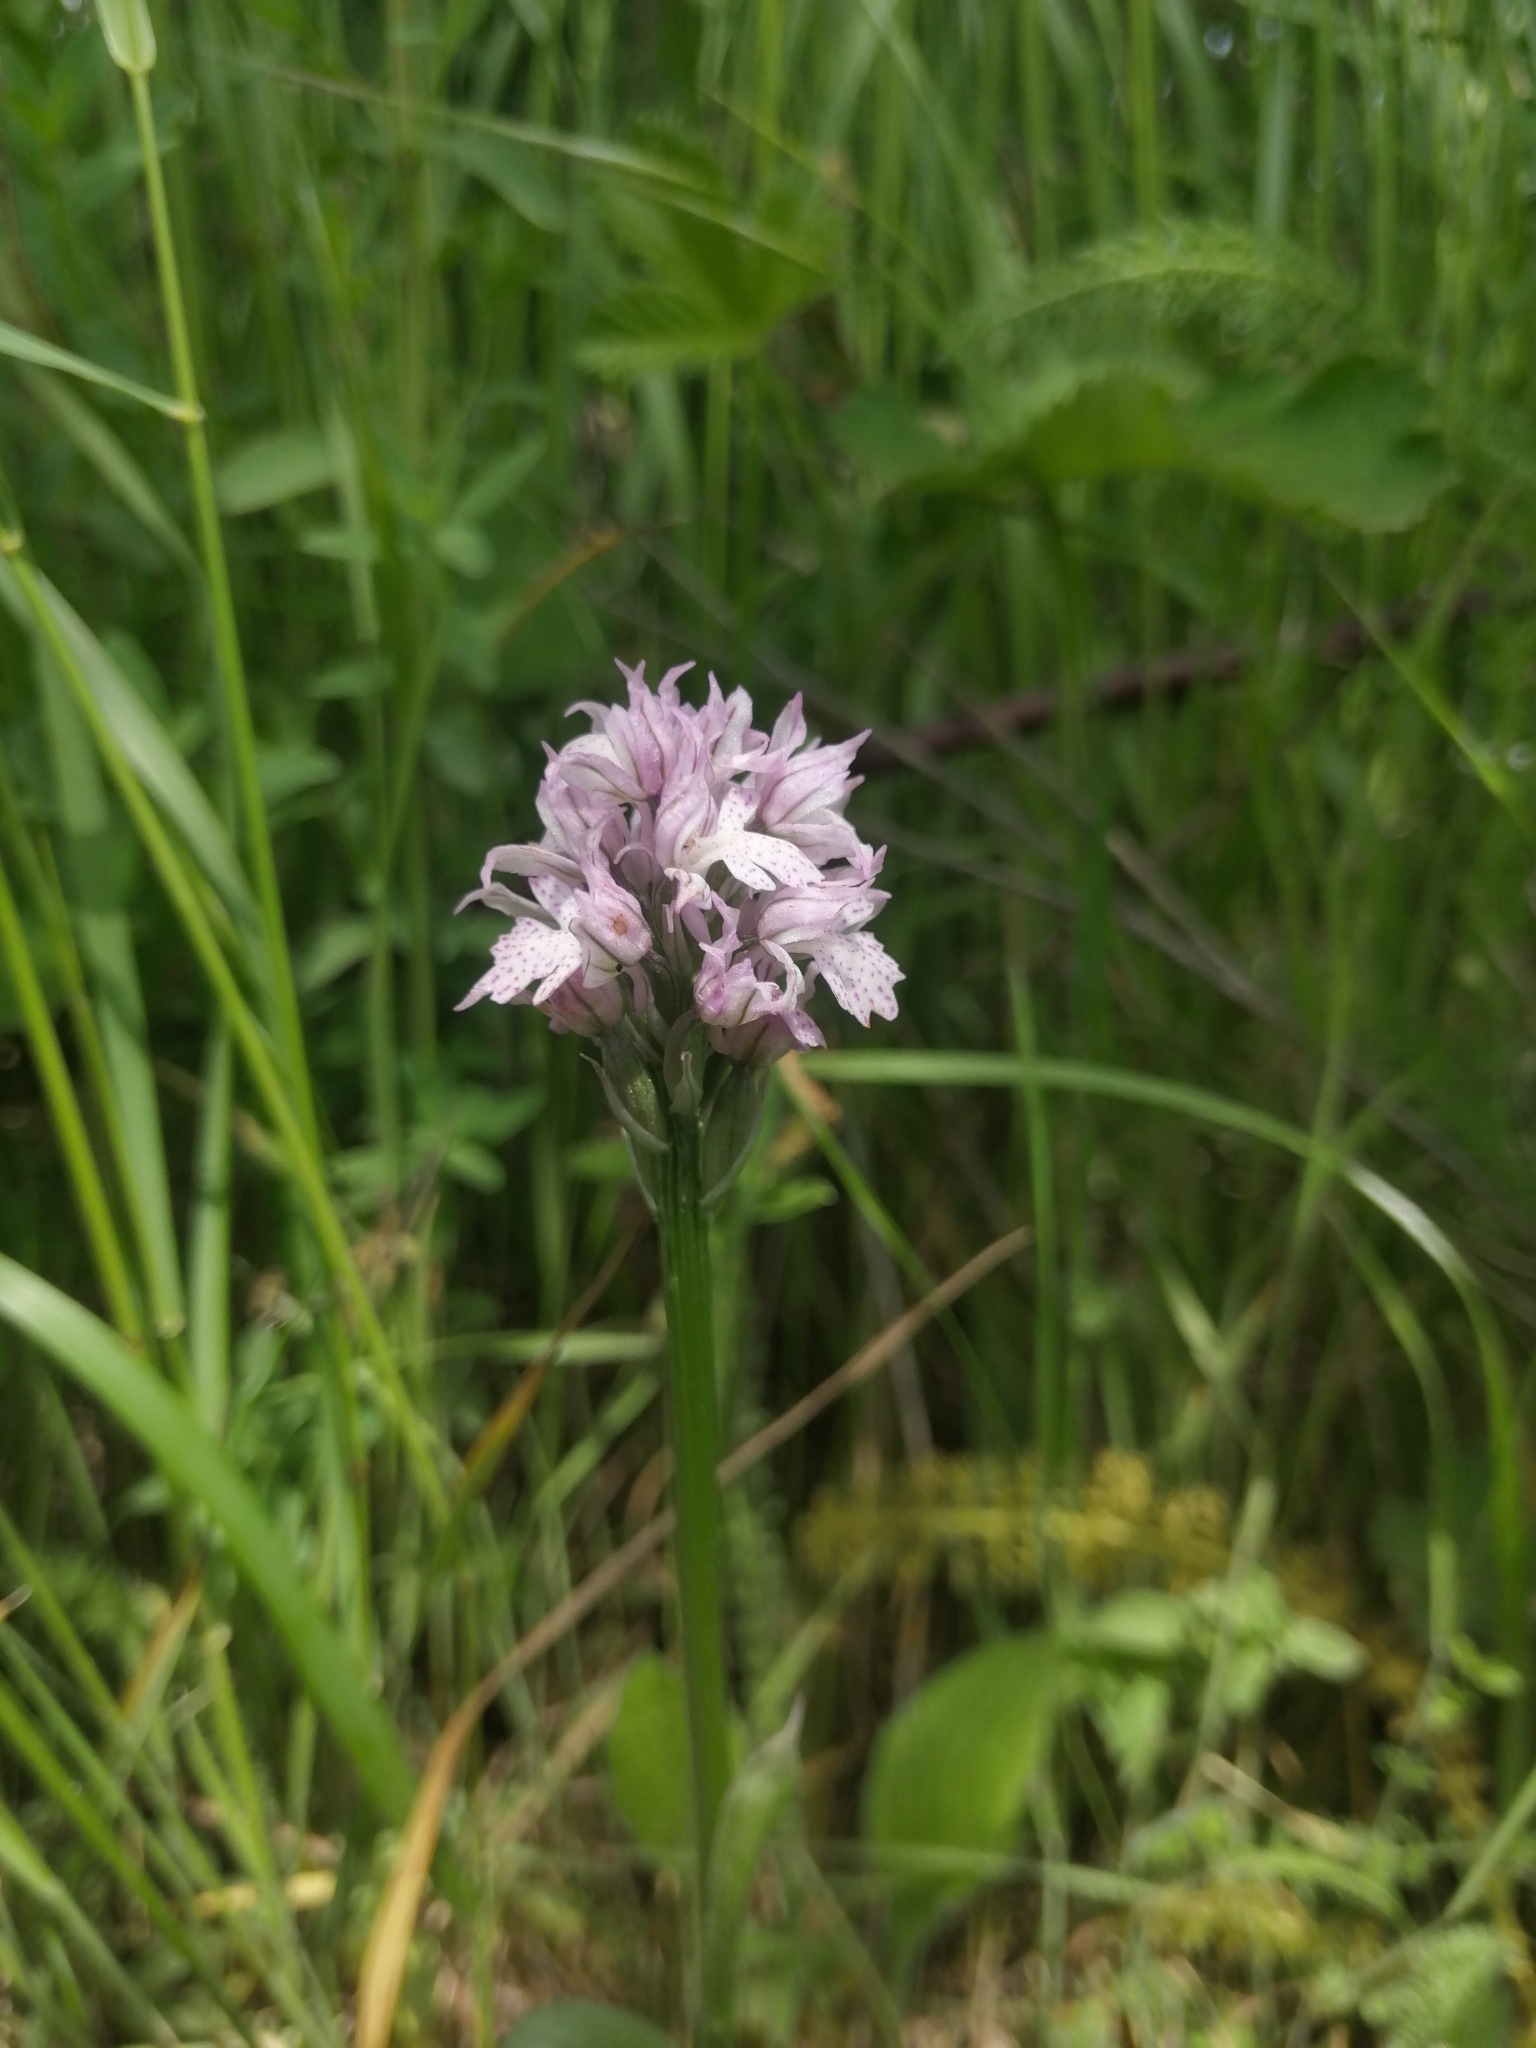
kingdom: Plantae
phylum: Tracheophyta
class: Liliopsida
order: Asparagales
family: Orchidaceae
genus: Neotinea
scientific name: Neotinea tridentata
